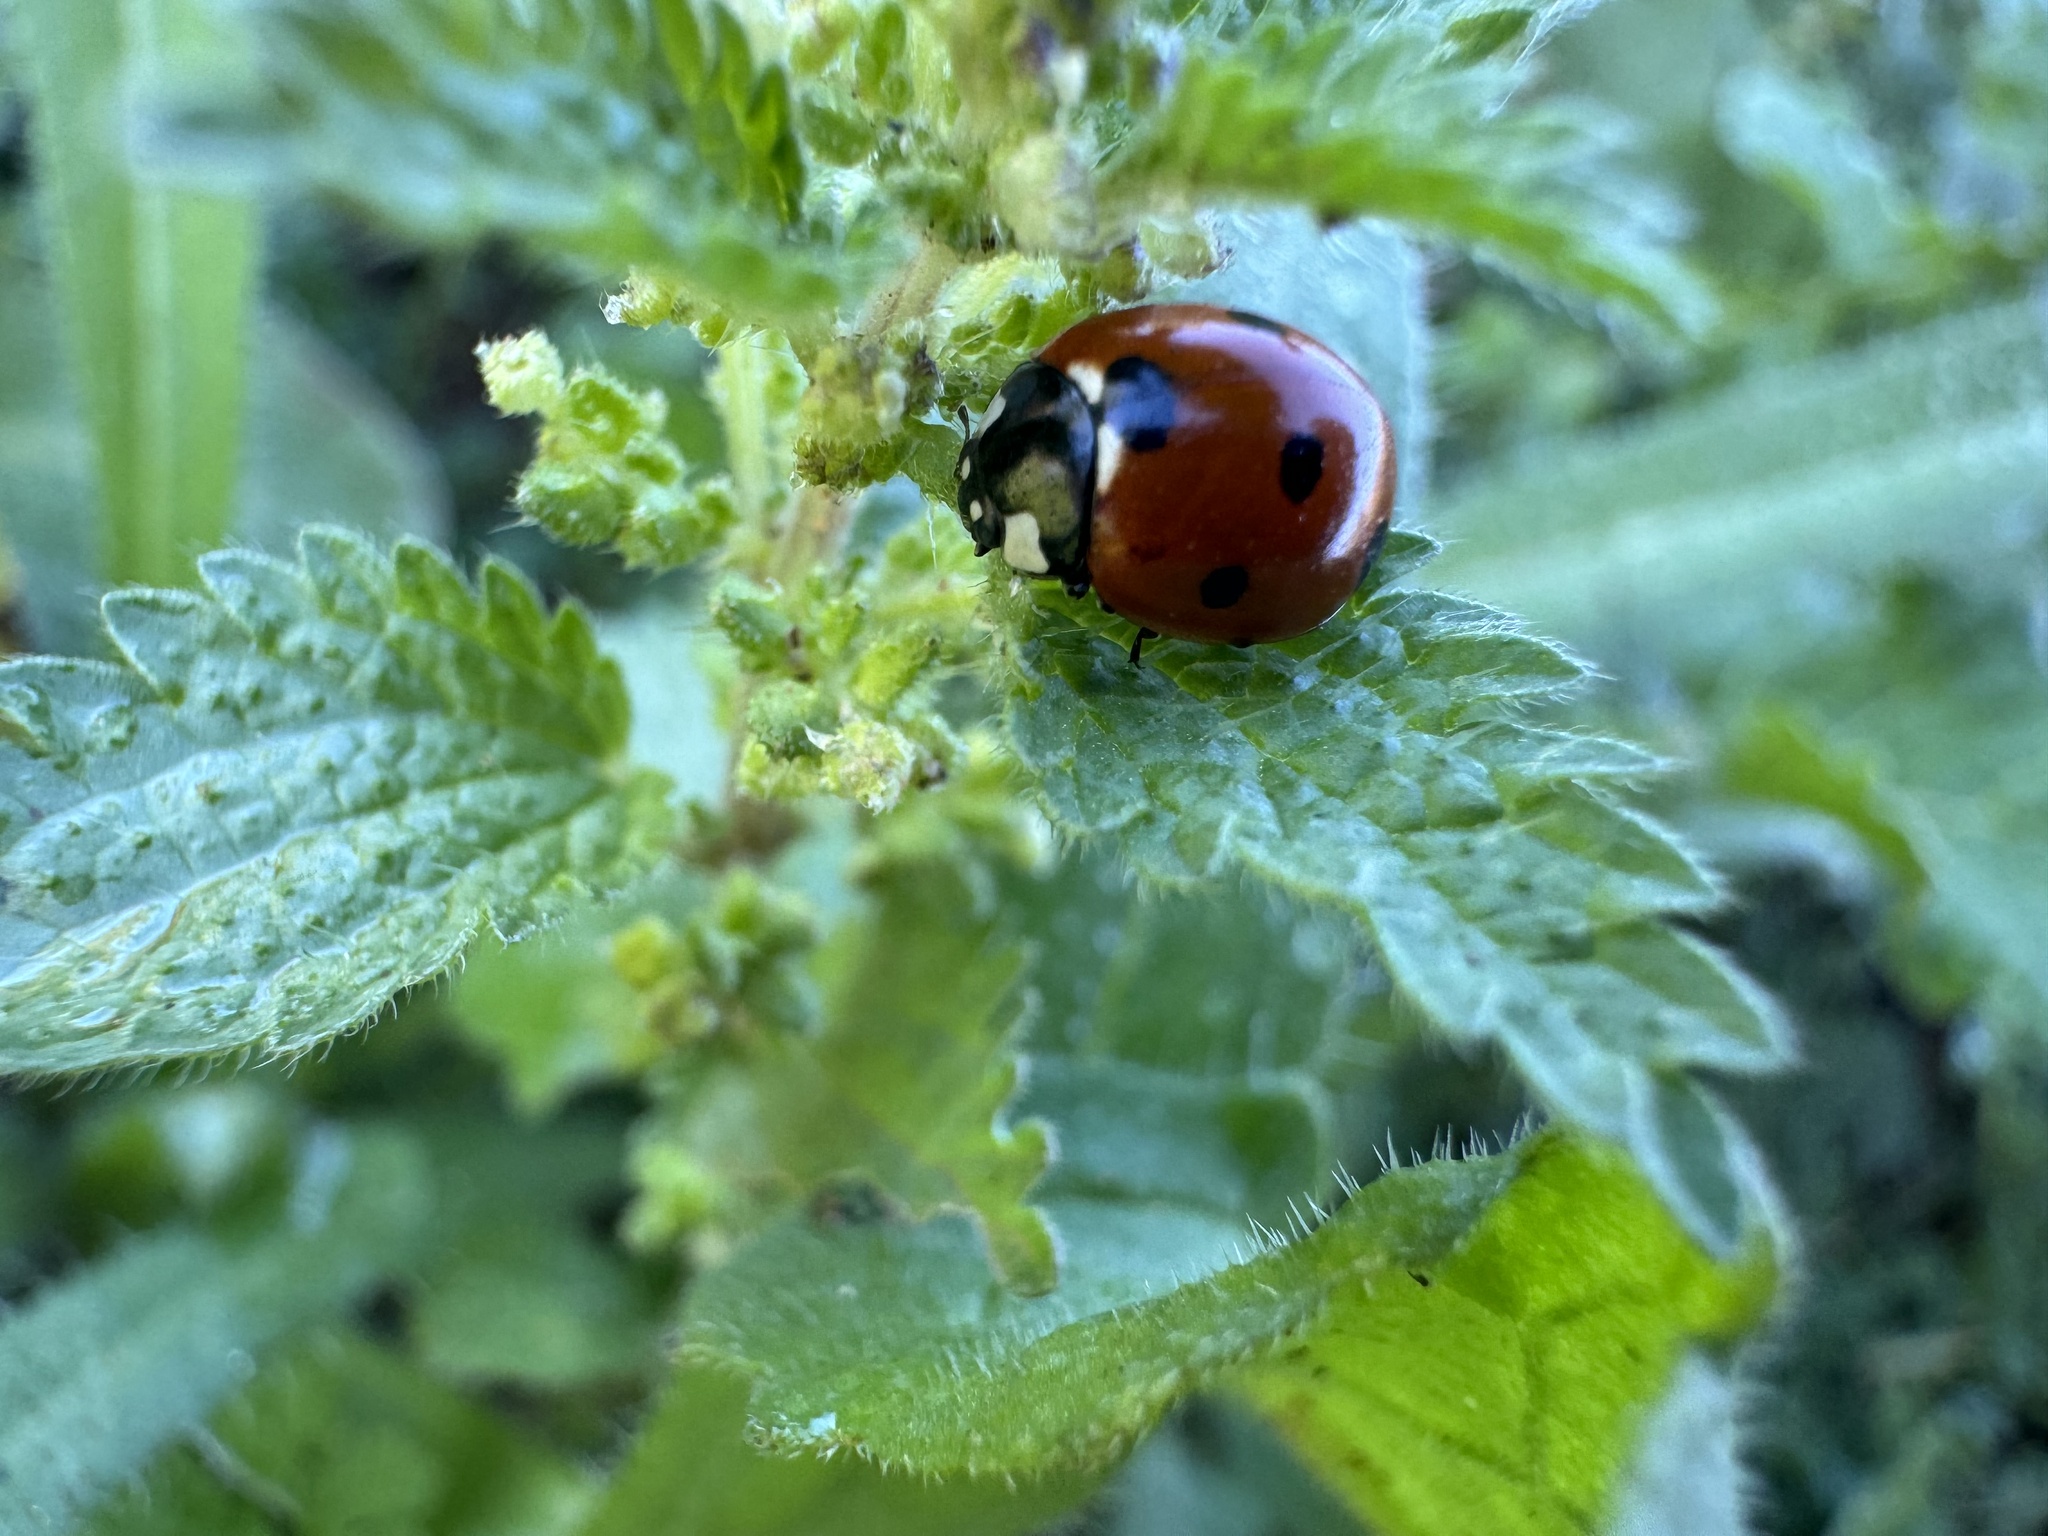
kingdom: Animalia
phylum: Arthropoda
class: Insecta
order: Coleoptera
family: Coccinellidae
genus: Coccinella
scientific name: Coccinella septempunctata
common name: Sevenspotted lady beetle
